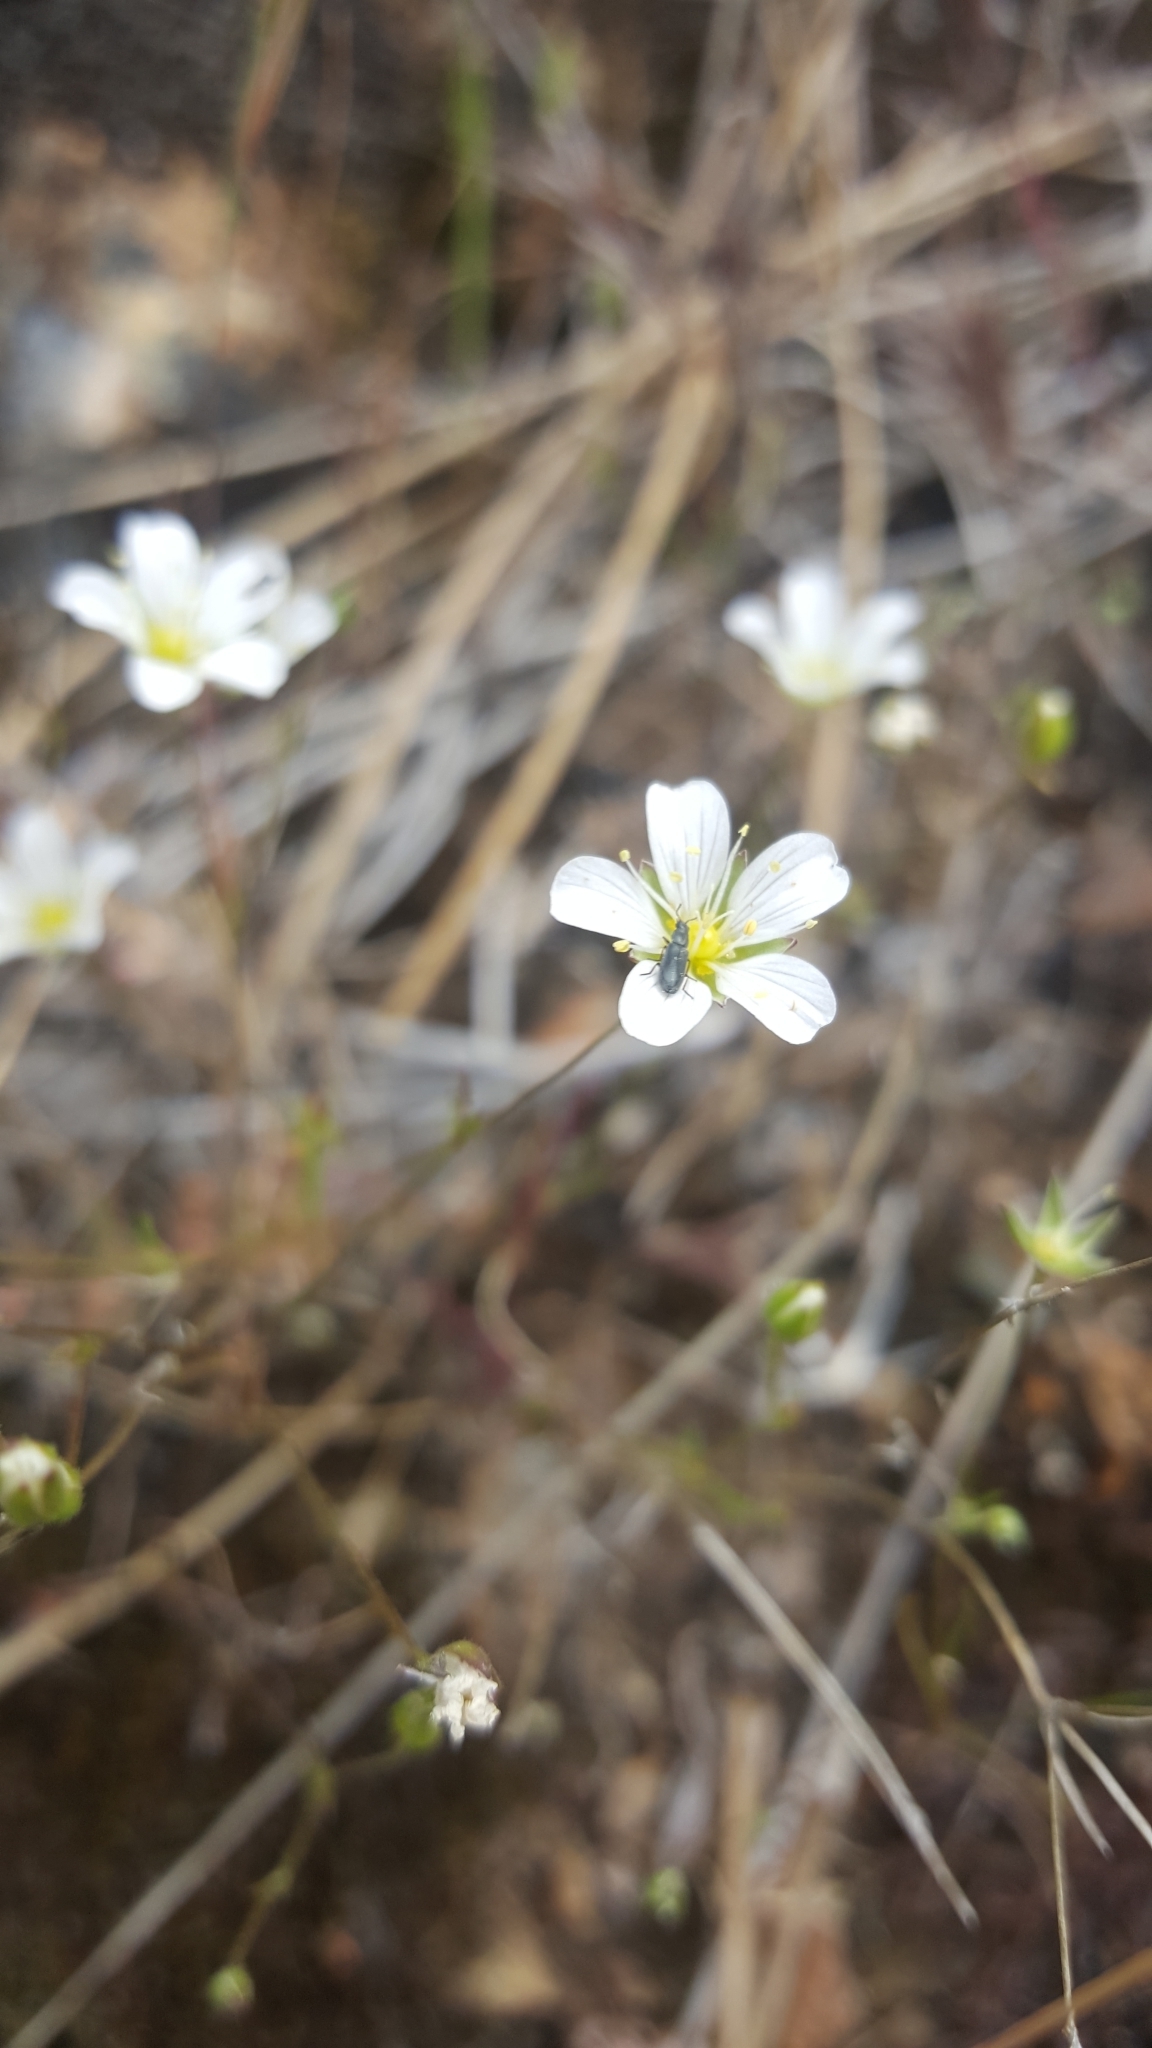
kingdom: Plantae
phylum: Tracheophyta
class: Magnoliopsida
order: Caryophyllales
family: Caryophyllaceae
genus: Sabulina
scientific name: Sabulina douglasii
